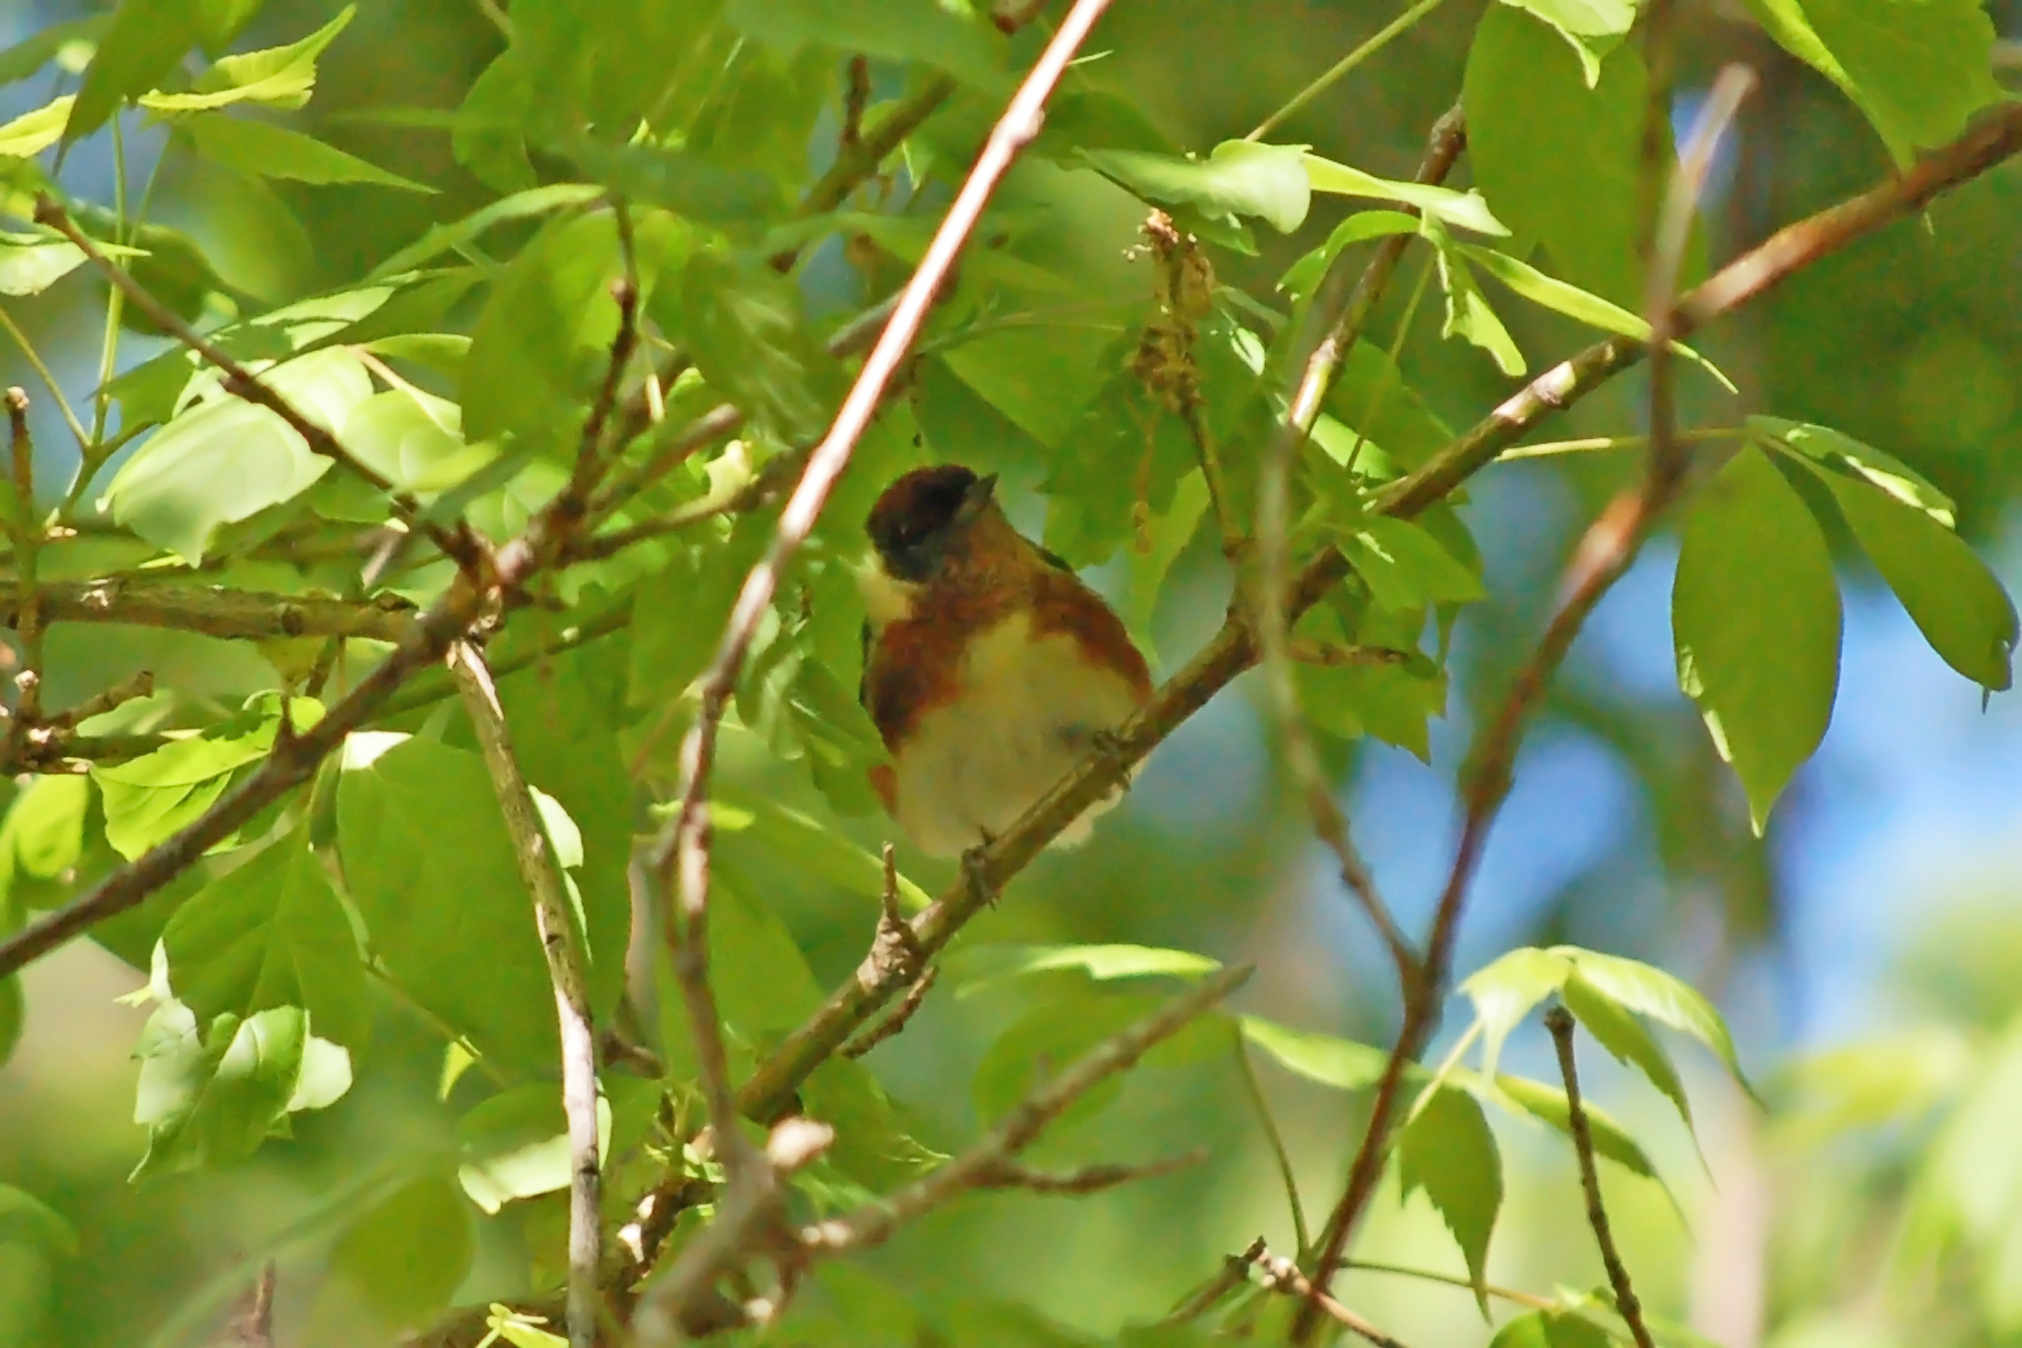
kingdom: Animalia
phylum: Chordata
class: Aves
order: Passeriformes
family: Parulidae
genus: Setophaga
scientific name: Setophaga castanea
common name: Bay-breasted warbler
